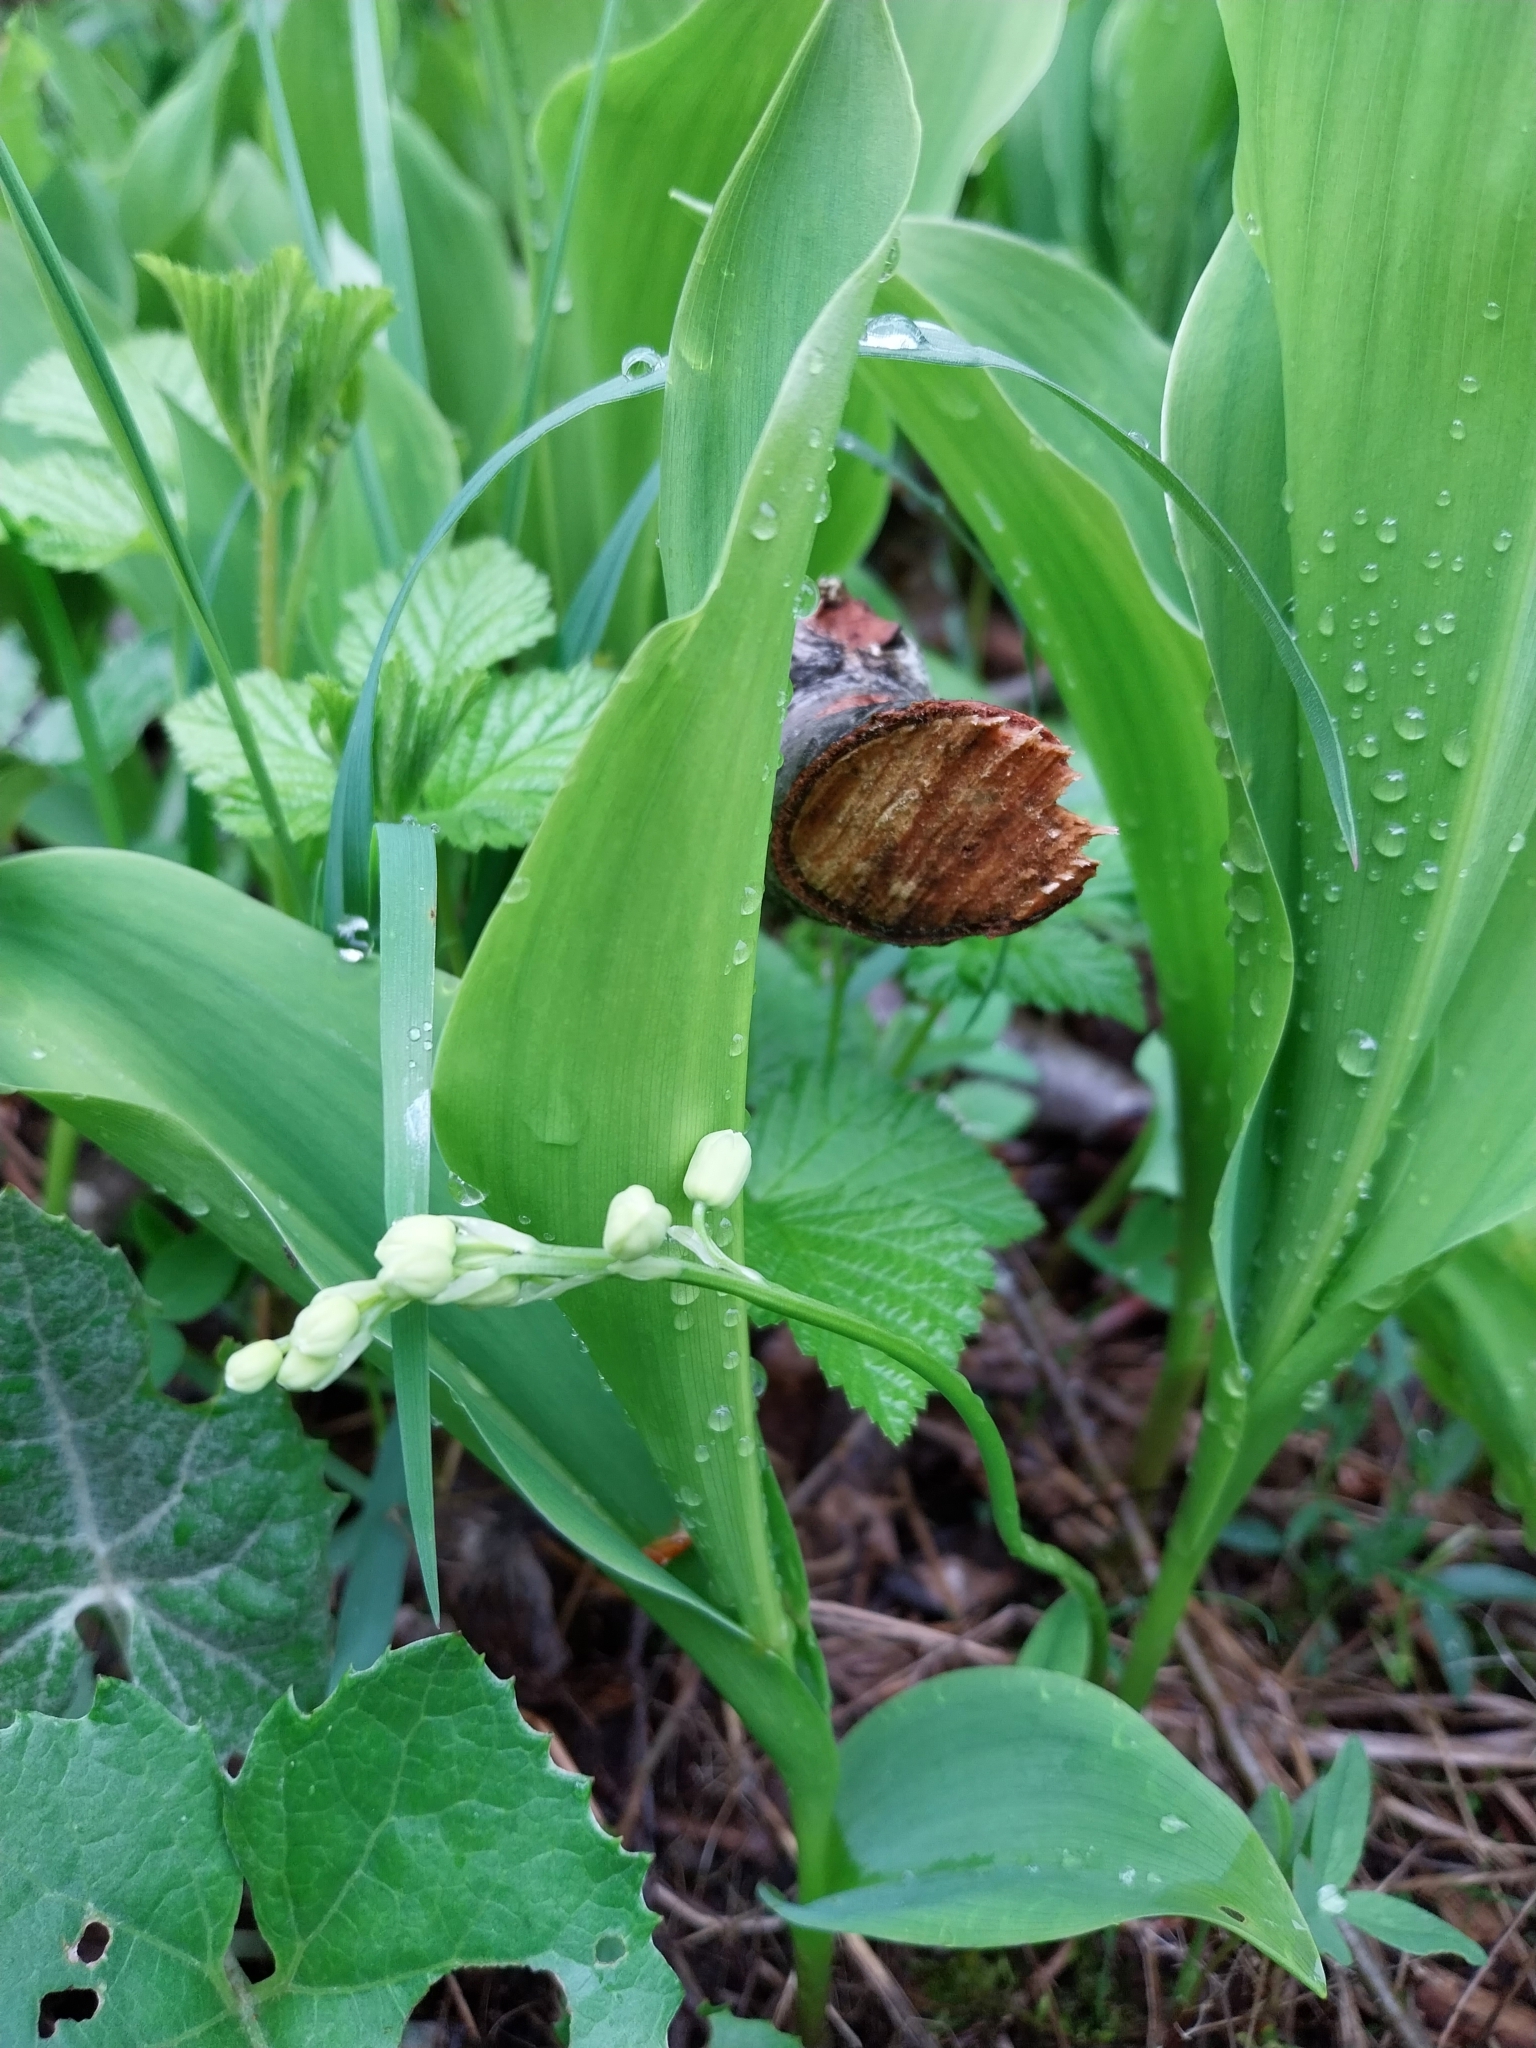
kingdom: Plantae
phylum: Tracheophyta
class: Liliopsida
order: Asparagales
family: Asparagaceae
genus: Convallaria
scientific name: Convallaria majalis
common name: Lily-of-the-valley
